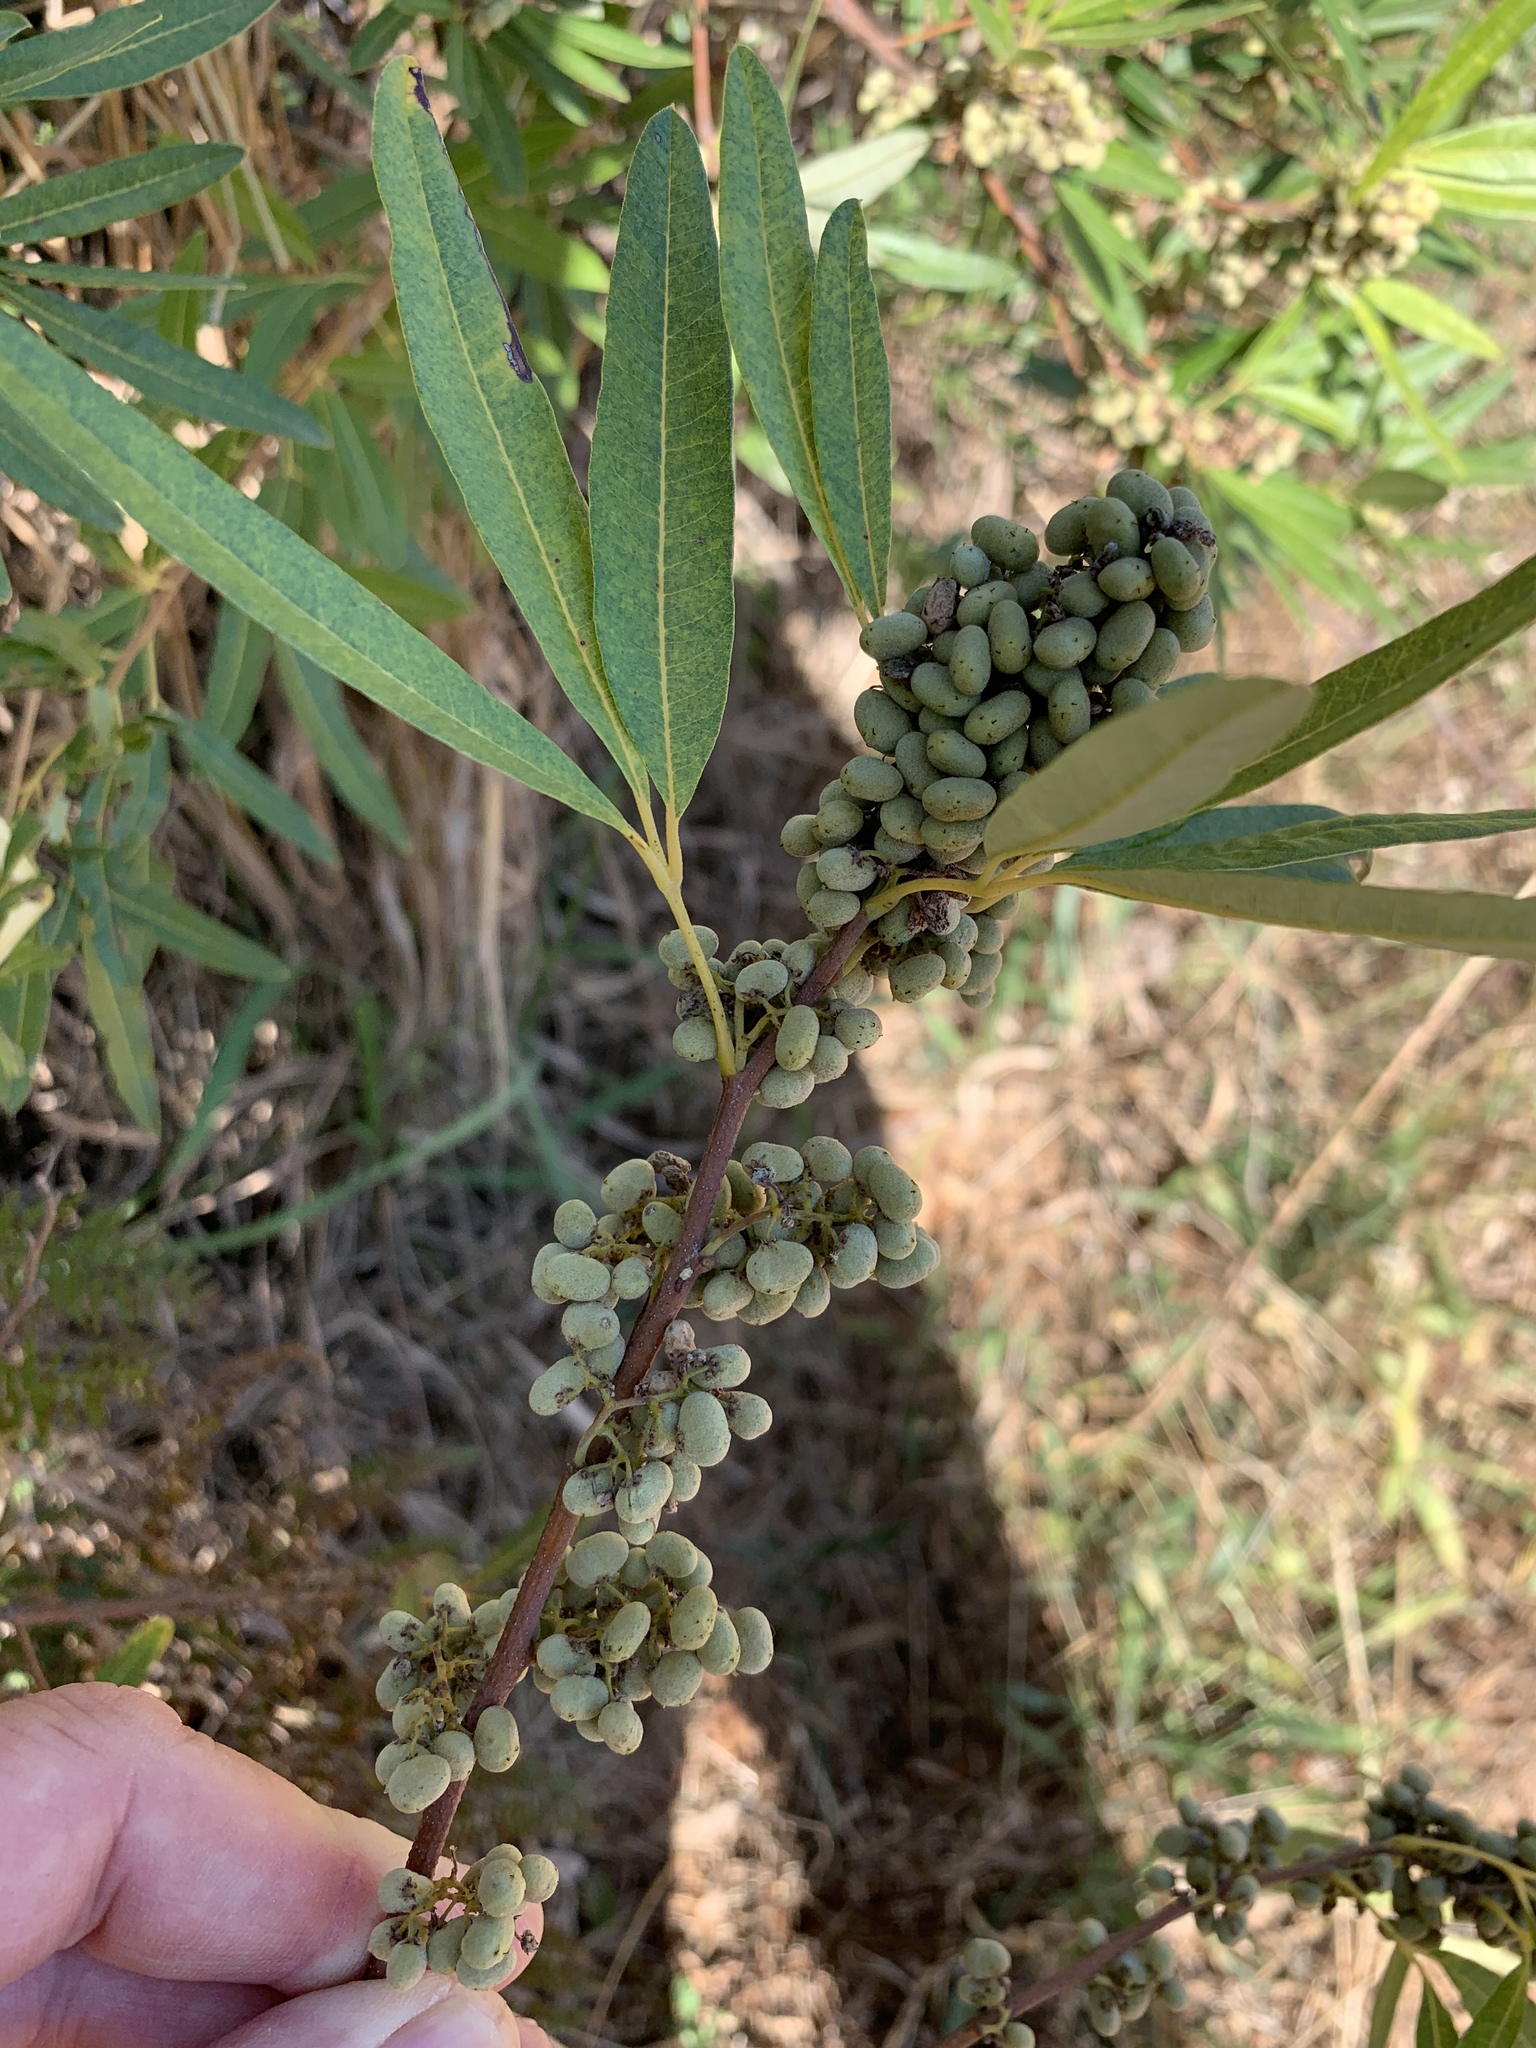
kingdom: Plantae
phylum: Tracheophyta
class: Magnoliopsida
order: Sapindales
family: Anacardiaceae
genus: Searsia
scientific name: Searsia angustifolia
